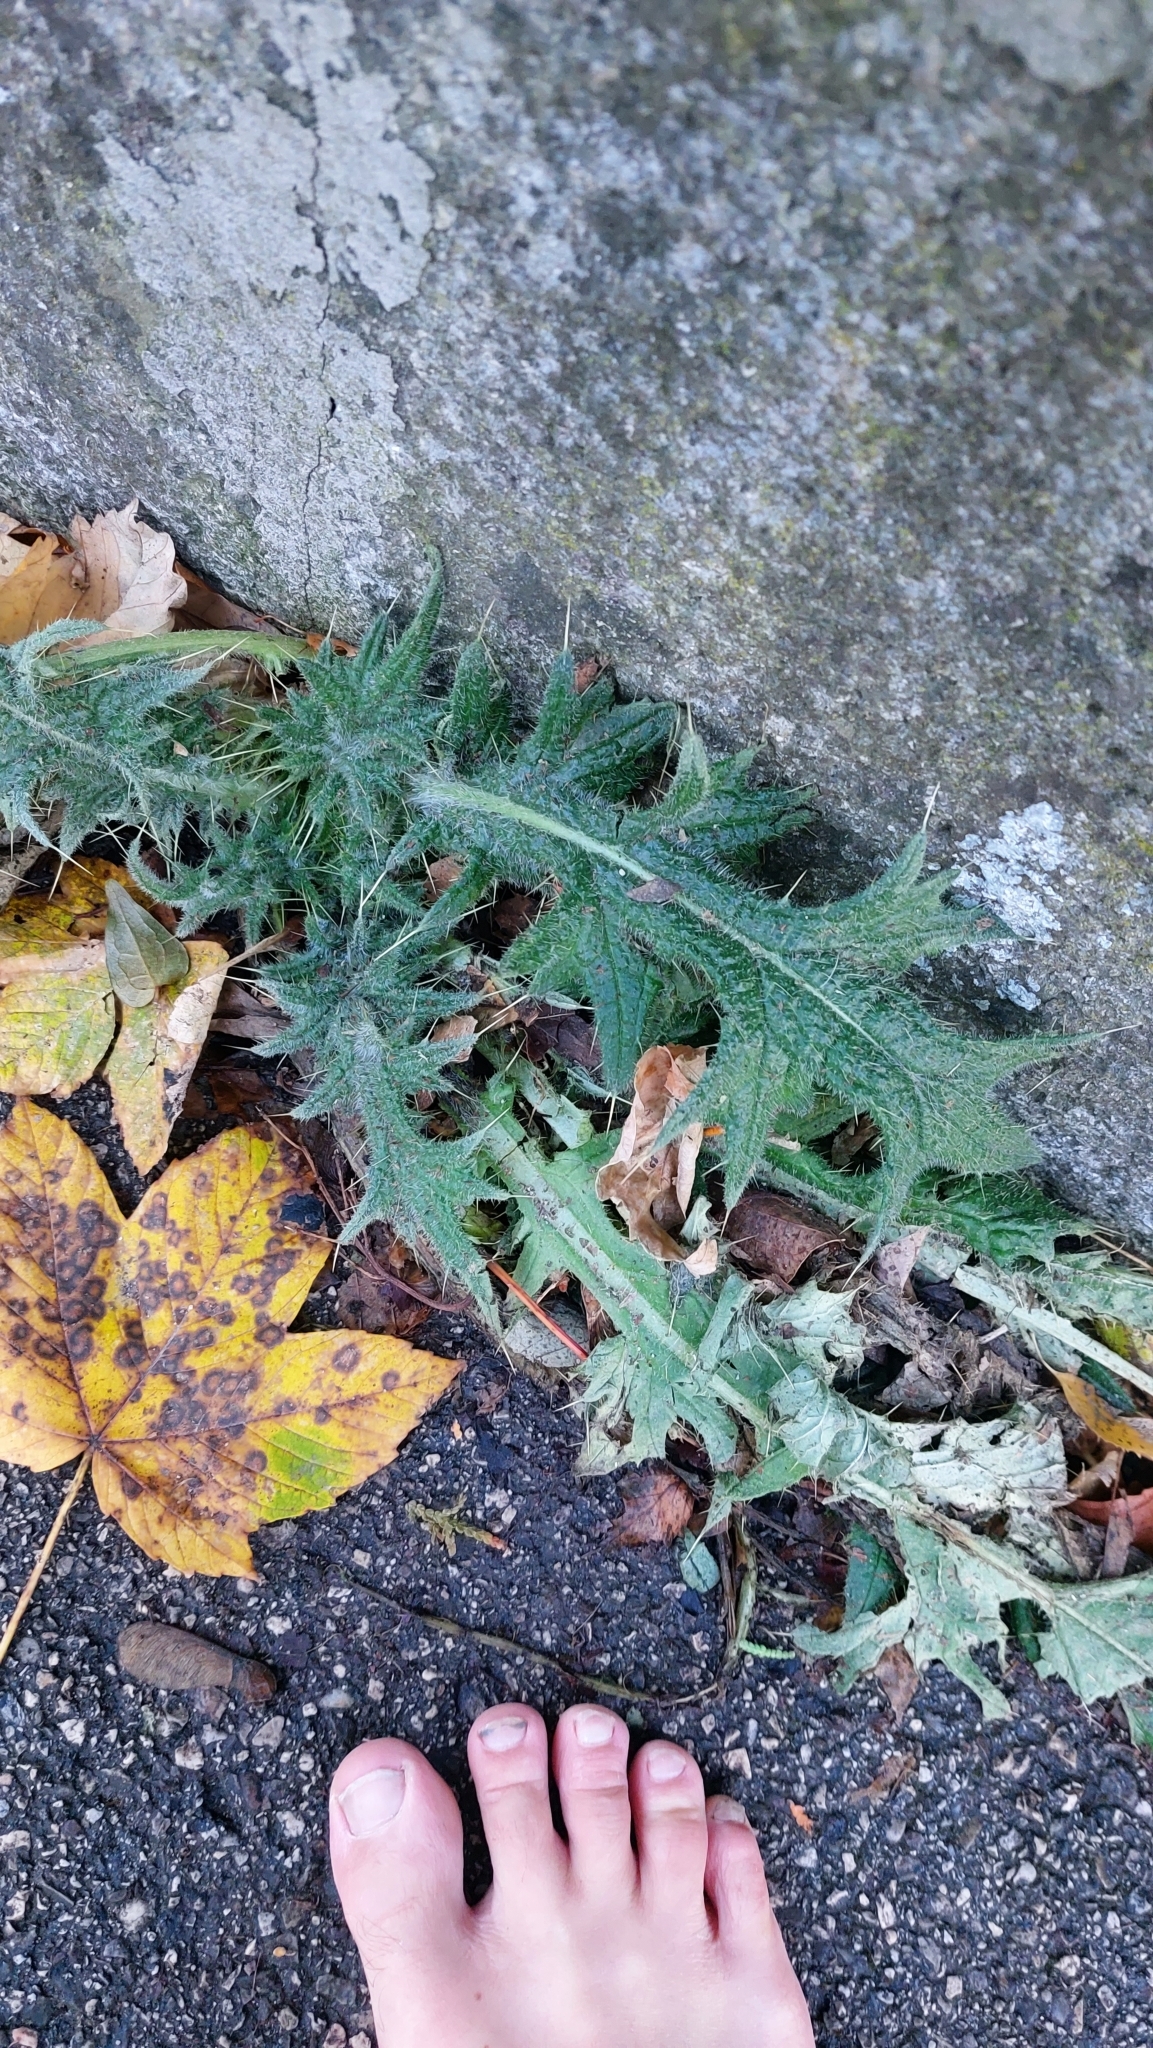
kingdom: Plantae
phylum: Tracheophyta
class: Magnoliopsida
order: Asterales
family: Asteraceae
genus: Cirsium
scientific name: Cirsium vulgare
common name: Bull thistle
